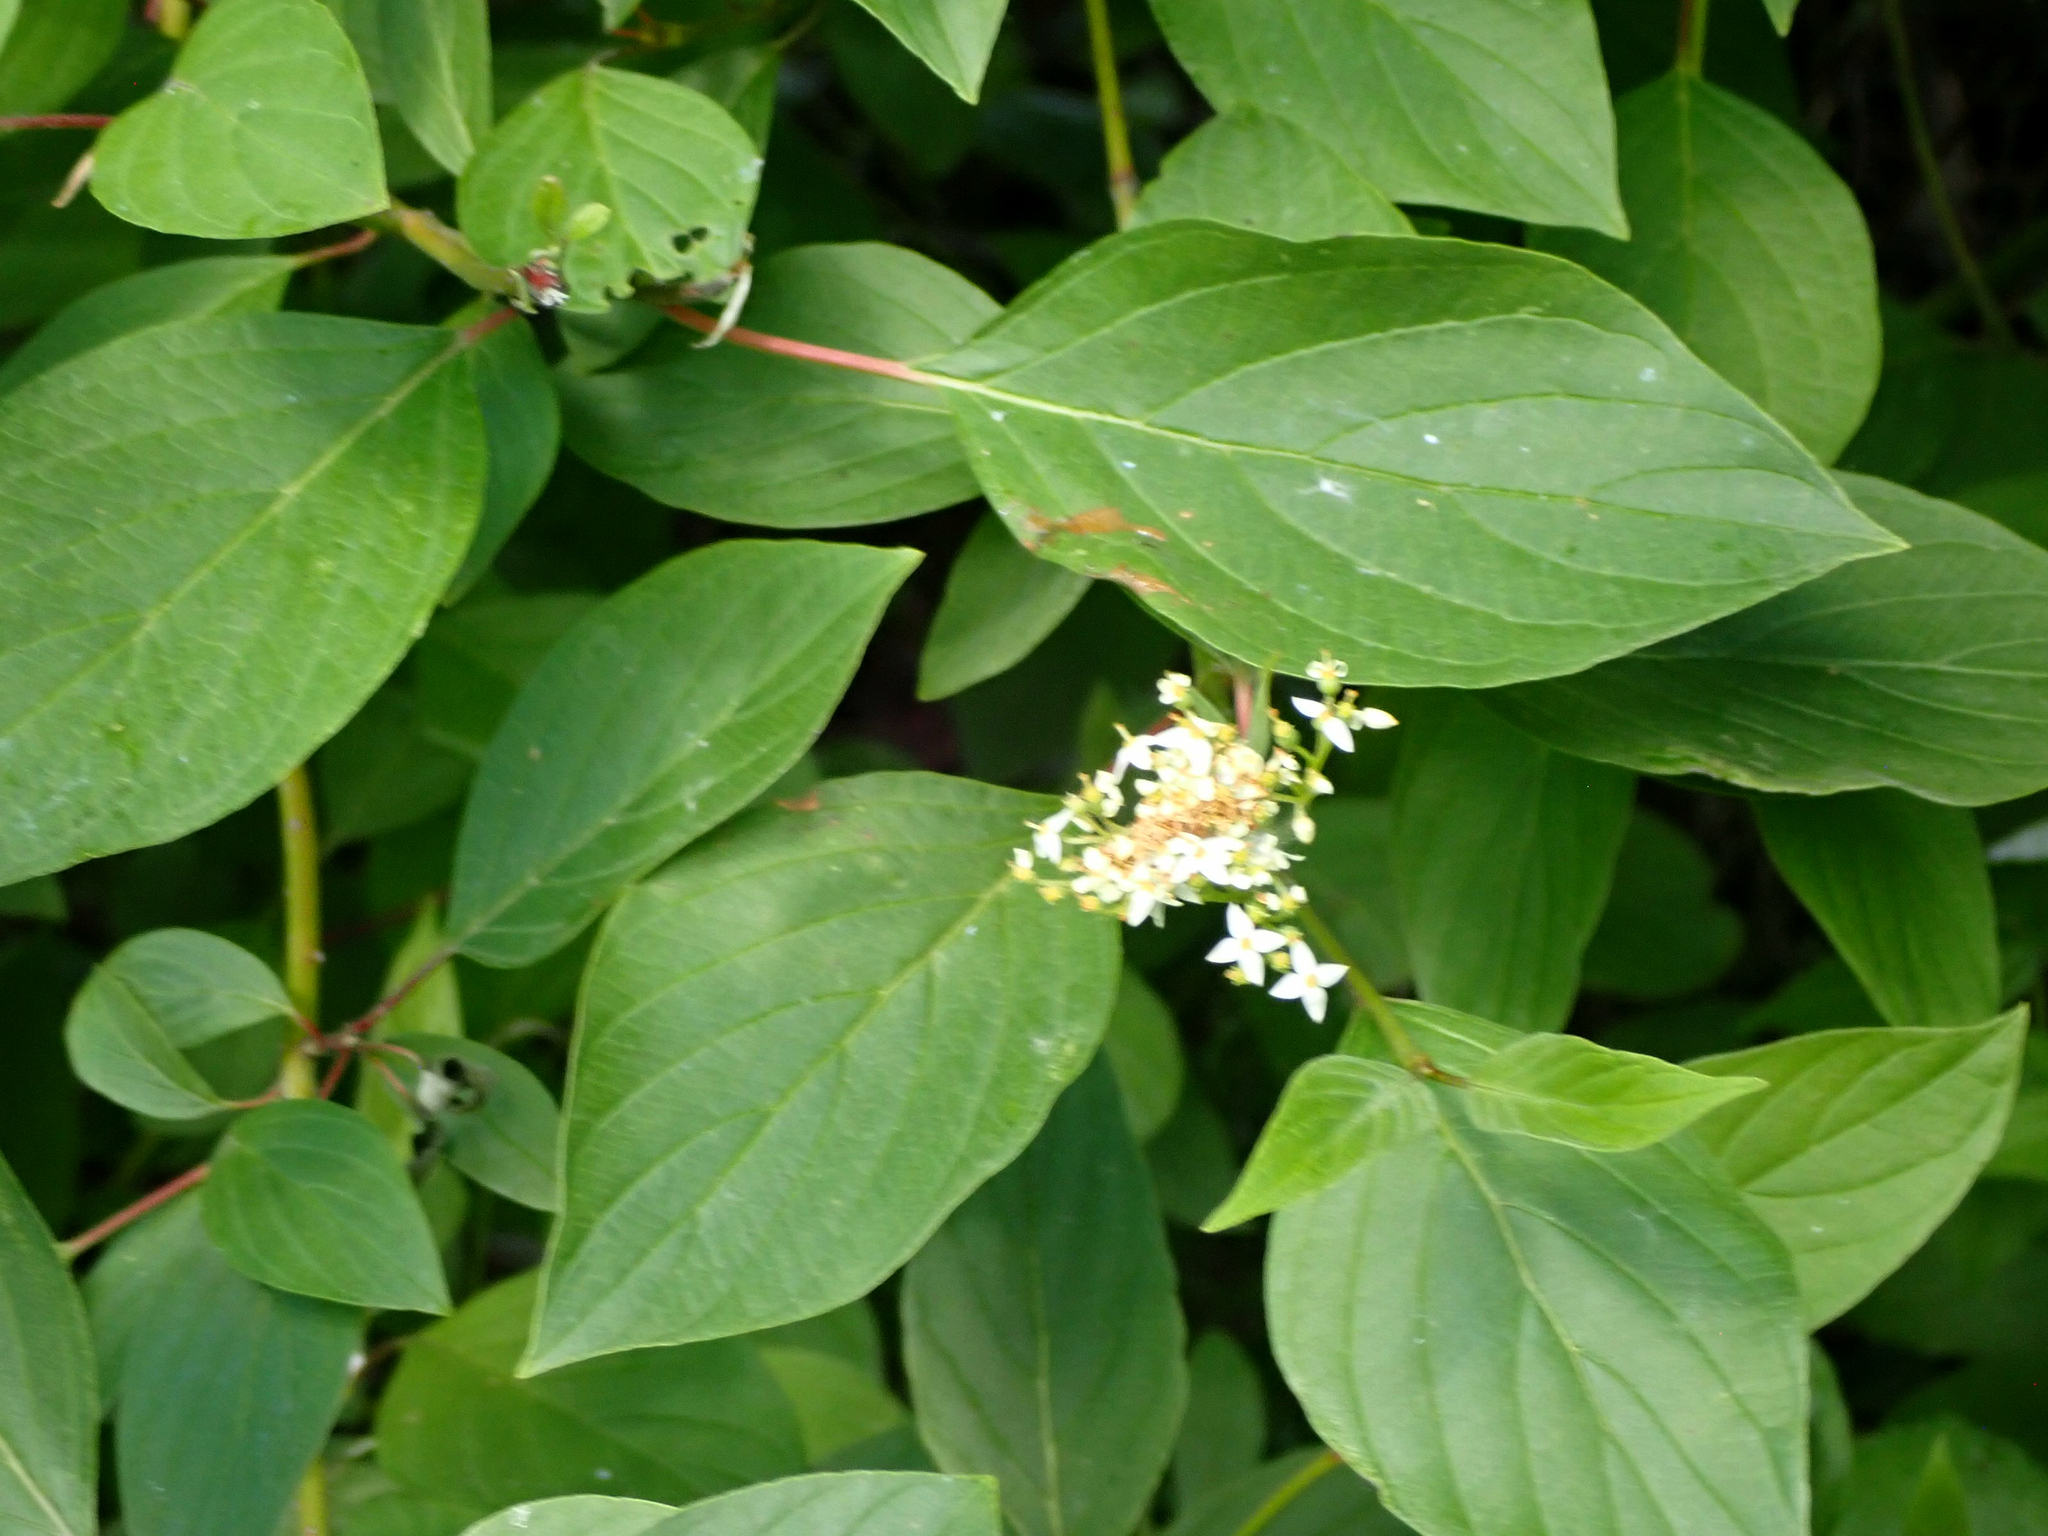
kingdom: Plantae
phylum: Tracheophyta
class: Magnoliopsida
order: Cornales
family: Cornaceae
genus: Cornus
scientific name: Cornus sericea
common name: Red-osier dogwood
